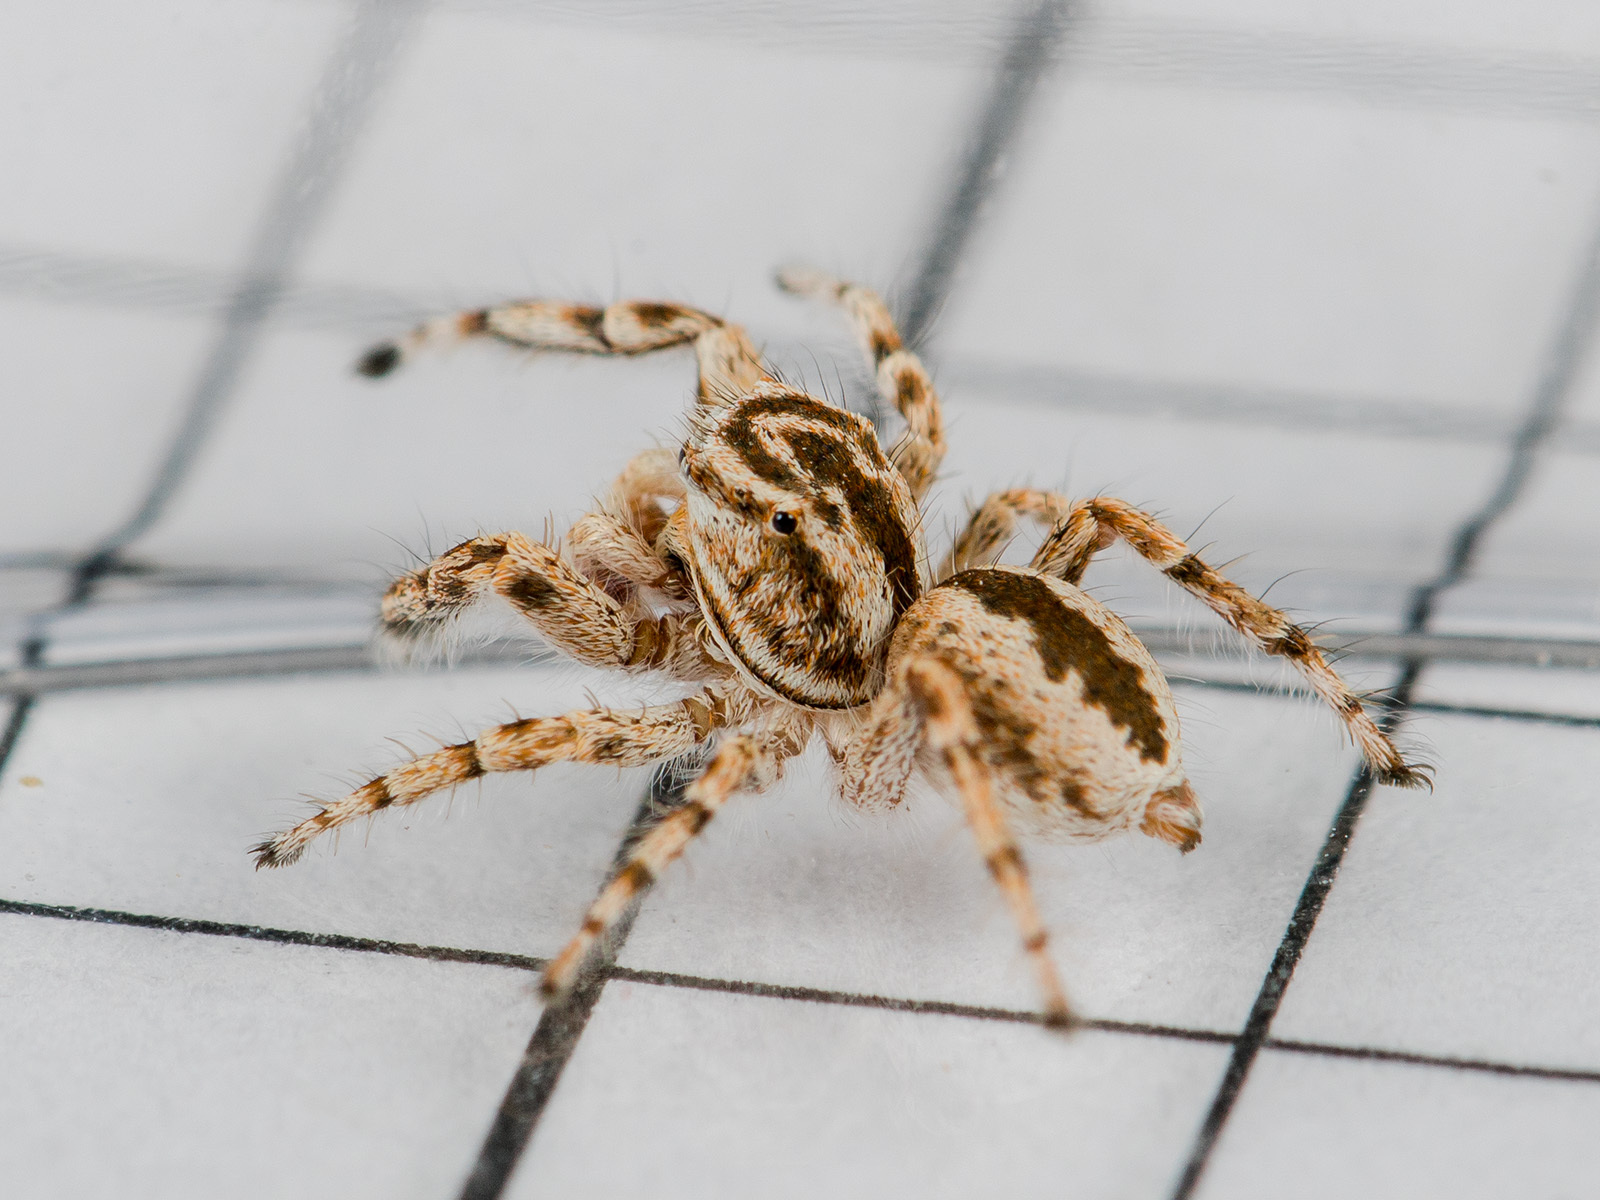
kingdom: Animalia
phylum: Arthropoda
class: Arachnida
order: Araneae
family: Salticidae
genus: Pseudomogrus
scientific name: Pseudomogrus guseinovi
